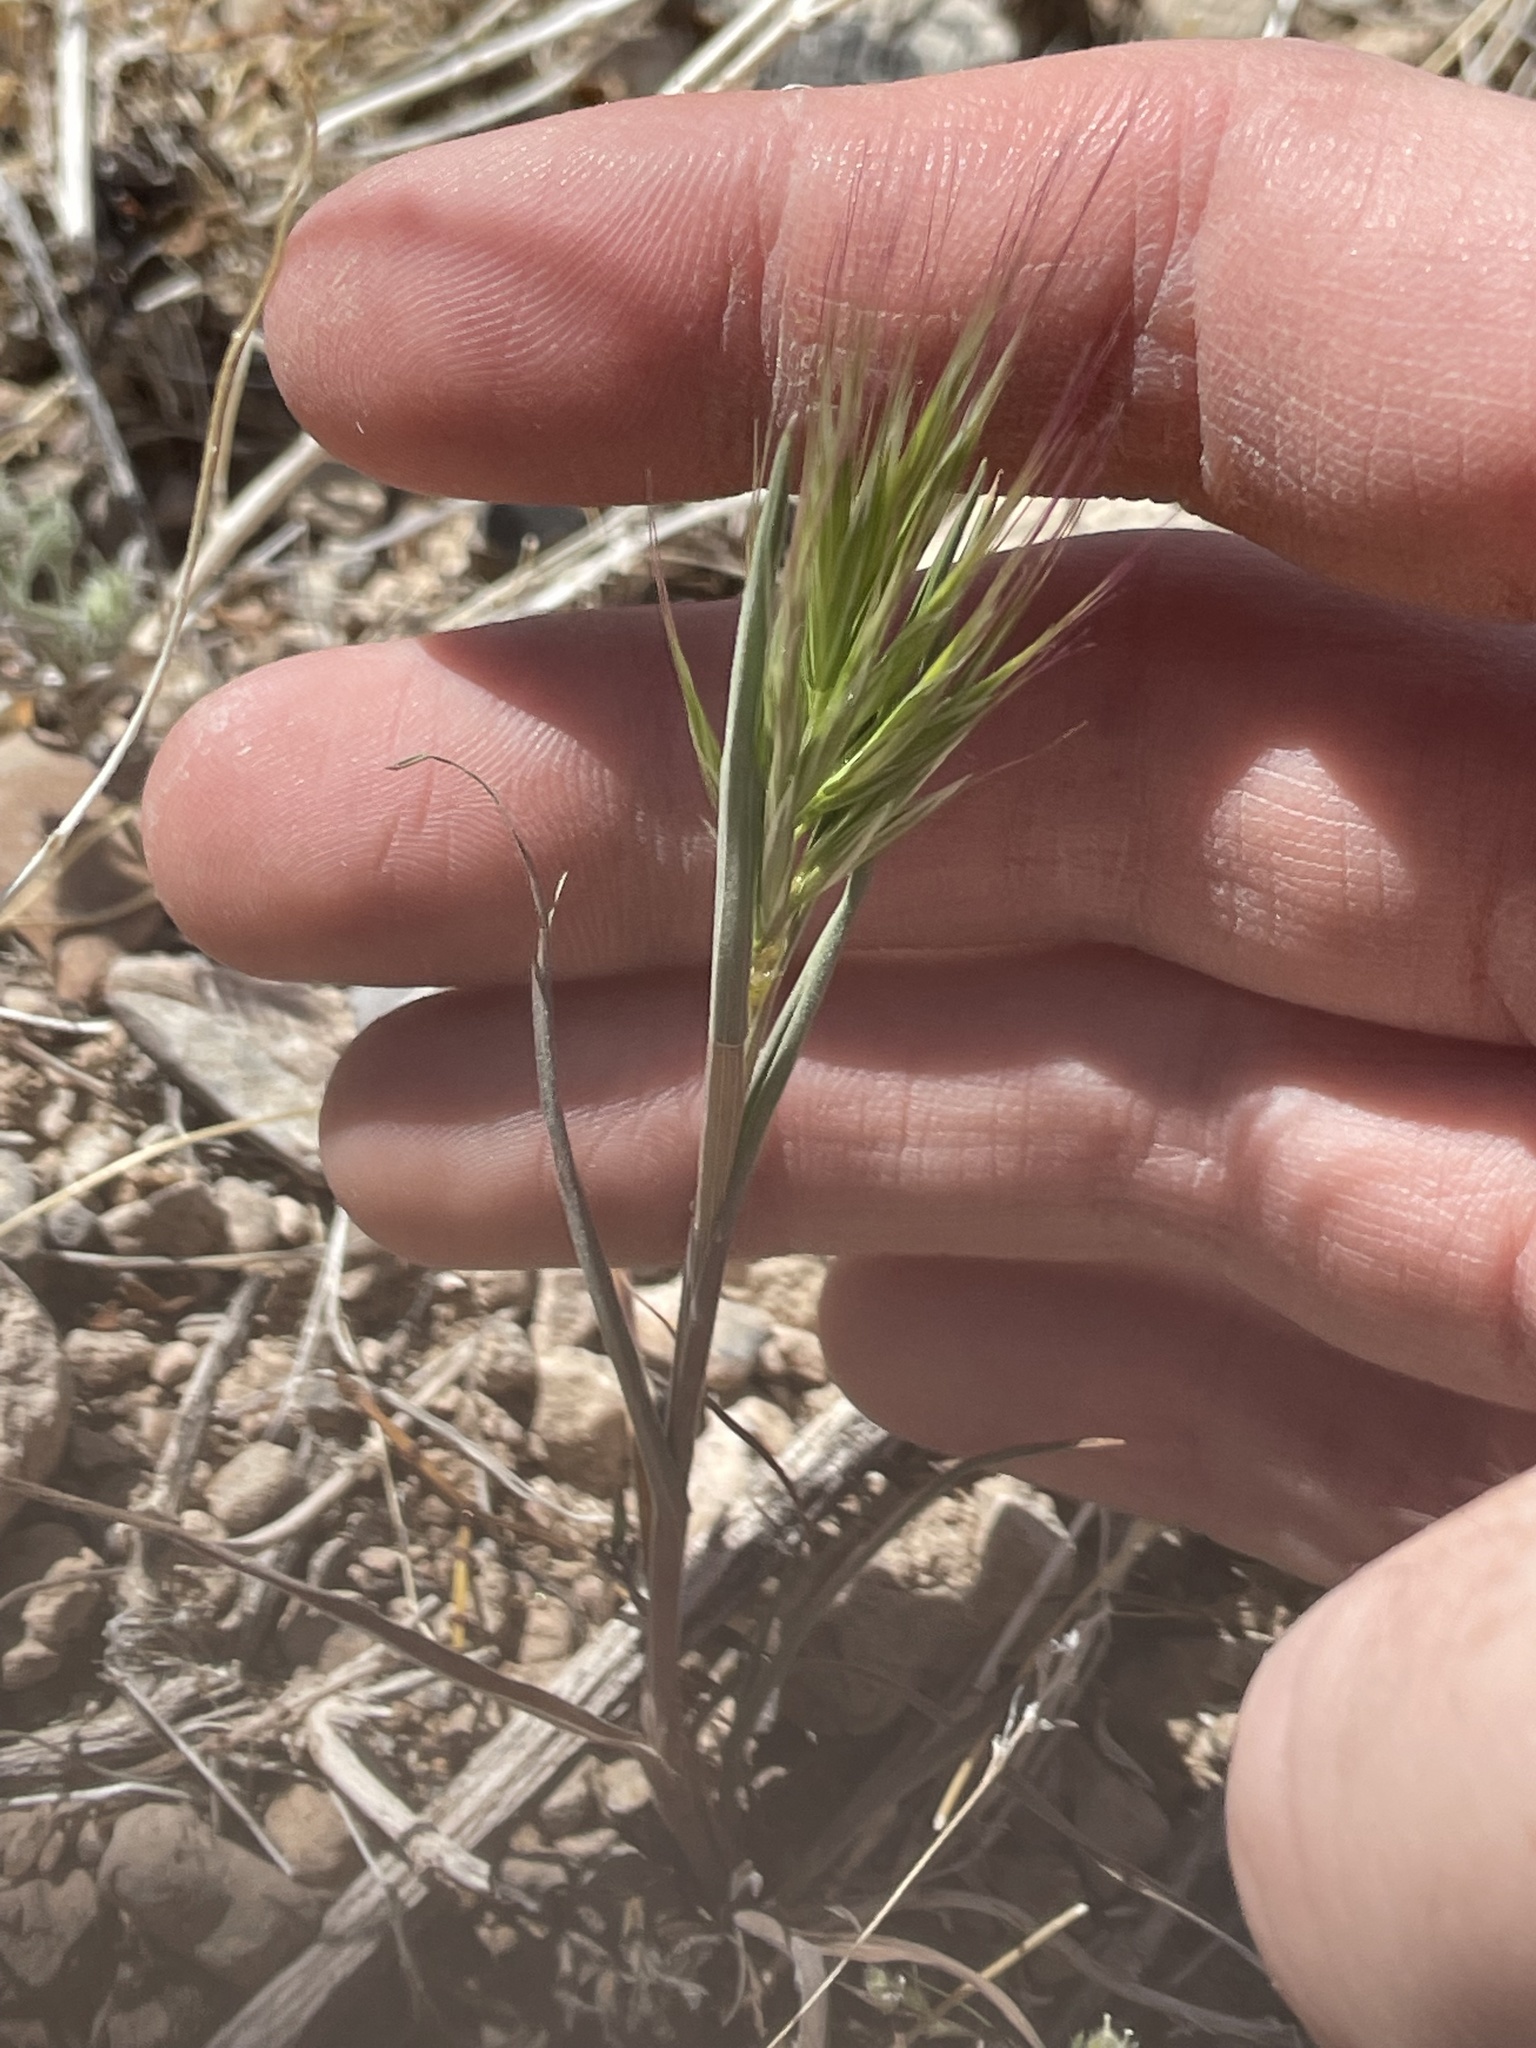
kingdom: Plantae
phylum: Tracheophyta
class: Liliopsida
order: Poales
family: Poaceae
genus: Bromus
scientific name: Bromus rubens
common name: Red brome
